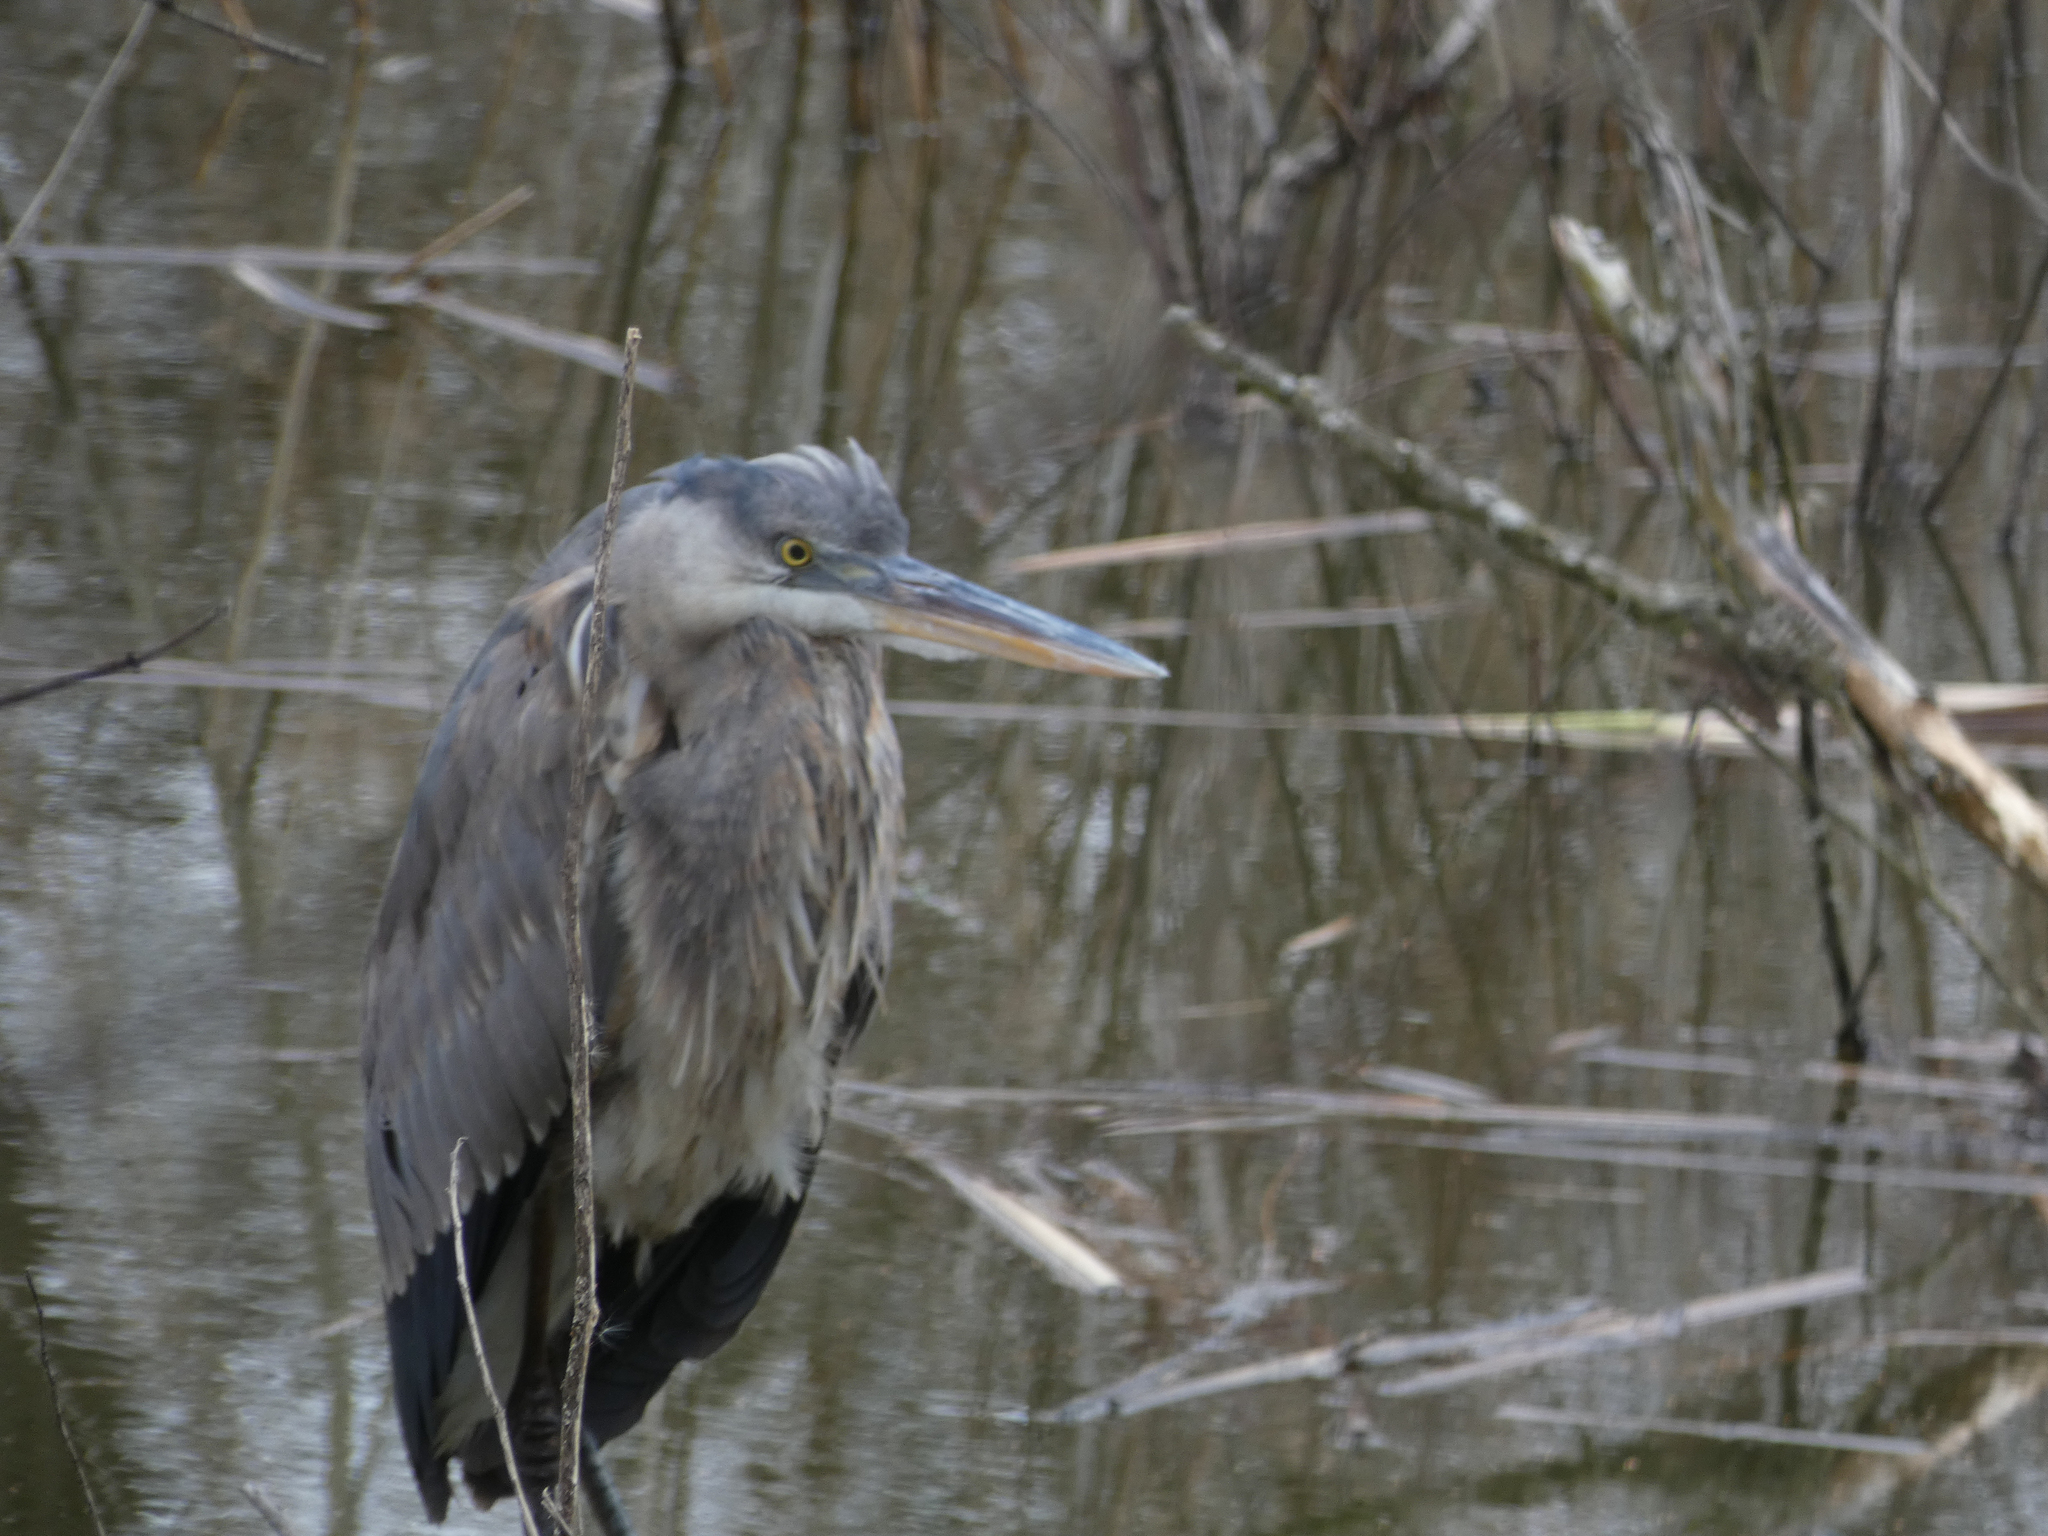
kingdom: Animalia
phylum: Chordata
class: Aves
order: Pelecaniformes
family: Ardeidae
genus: Ardea
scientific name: Ardea herodias
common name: Great blue heron
